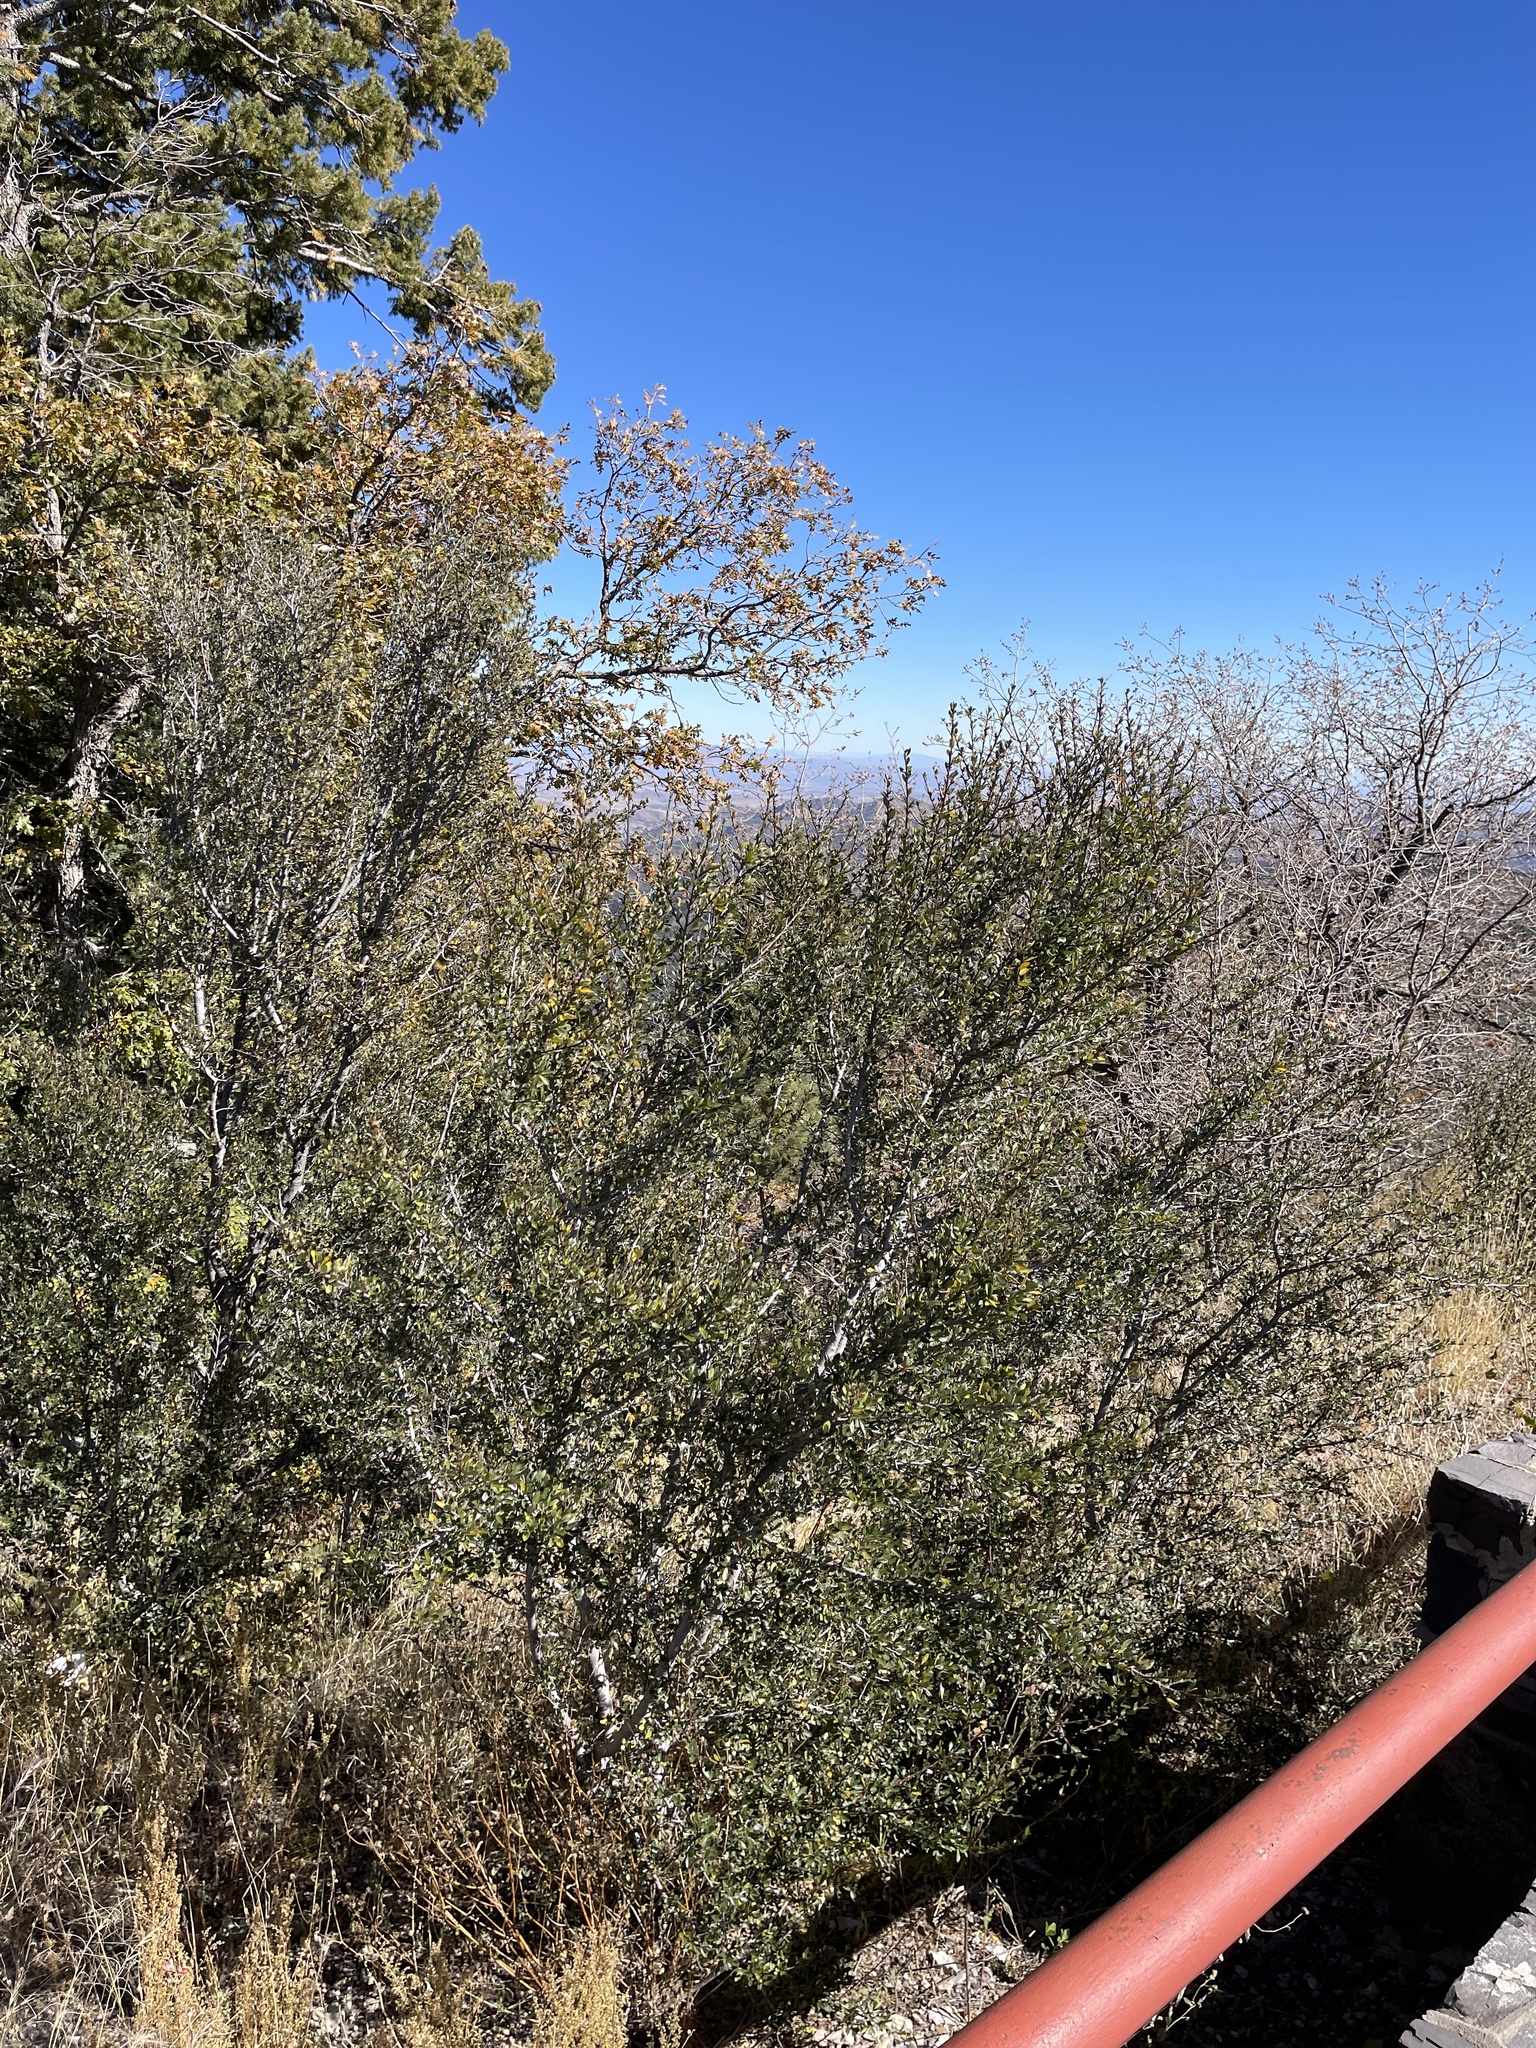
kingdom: Plantae
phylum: Tracheophyta
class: Magnoliopsida
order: Rosales
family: Rosaceae
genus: Cercocarpus
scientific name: Cercocarpus breviflorus
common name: Wright's mountain-mahogany
